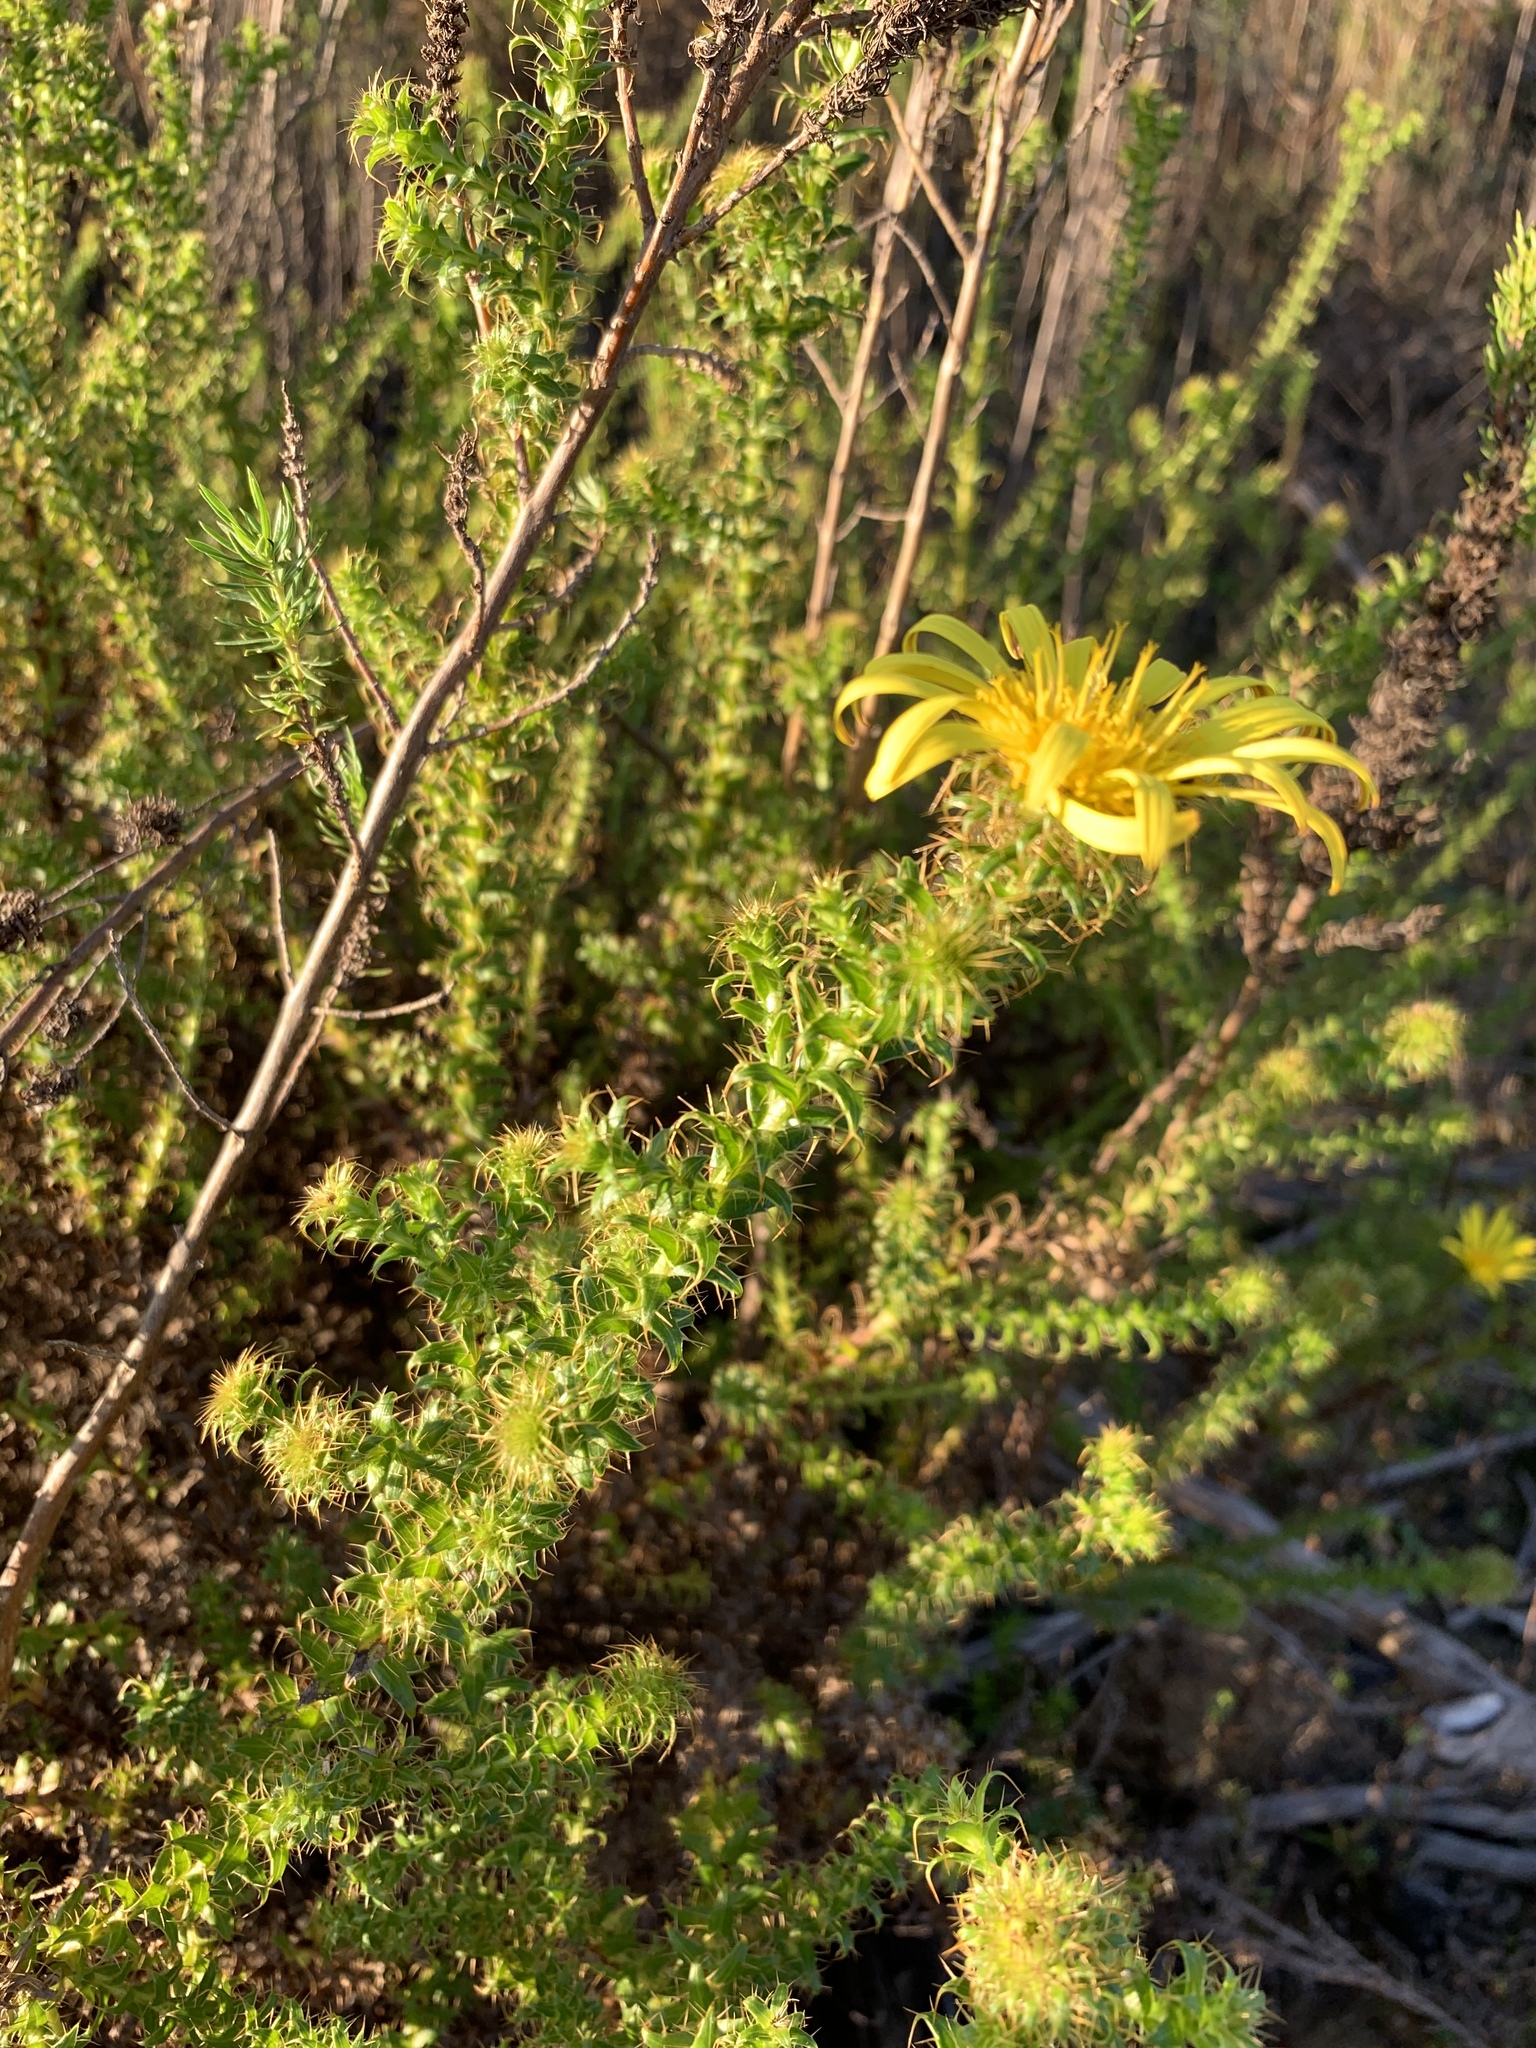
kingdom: Plantae
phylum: Tracheophyta
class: Magnoliopsida
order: Asterales
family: Asteraceae
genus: Cullumia
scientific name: Cullumia setosa
